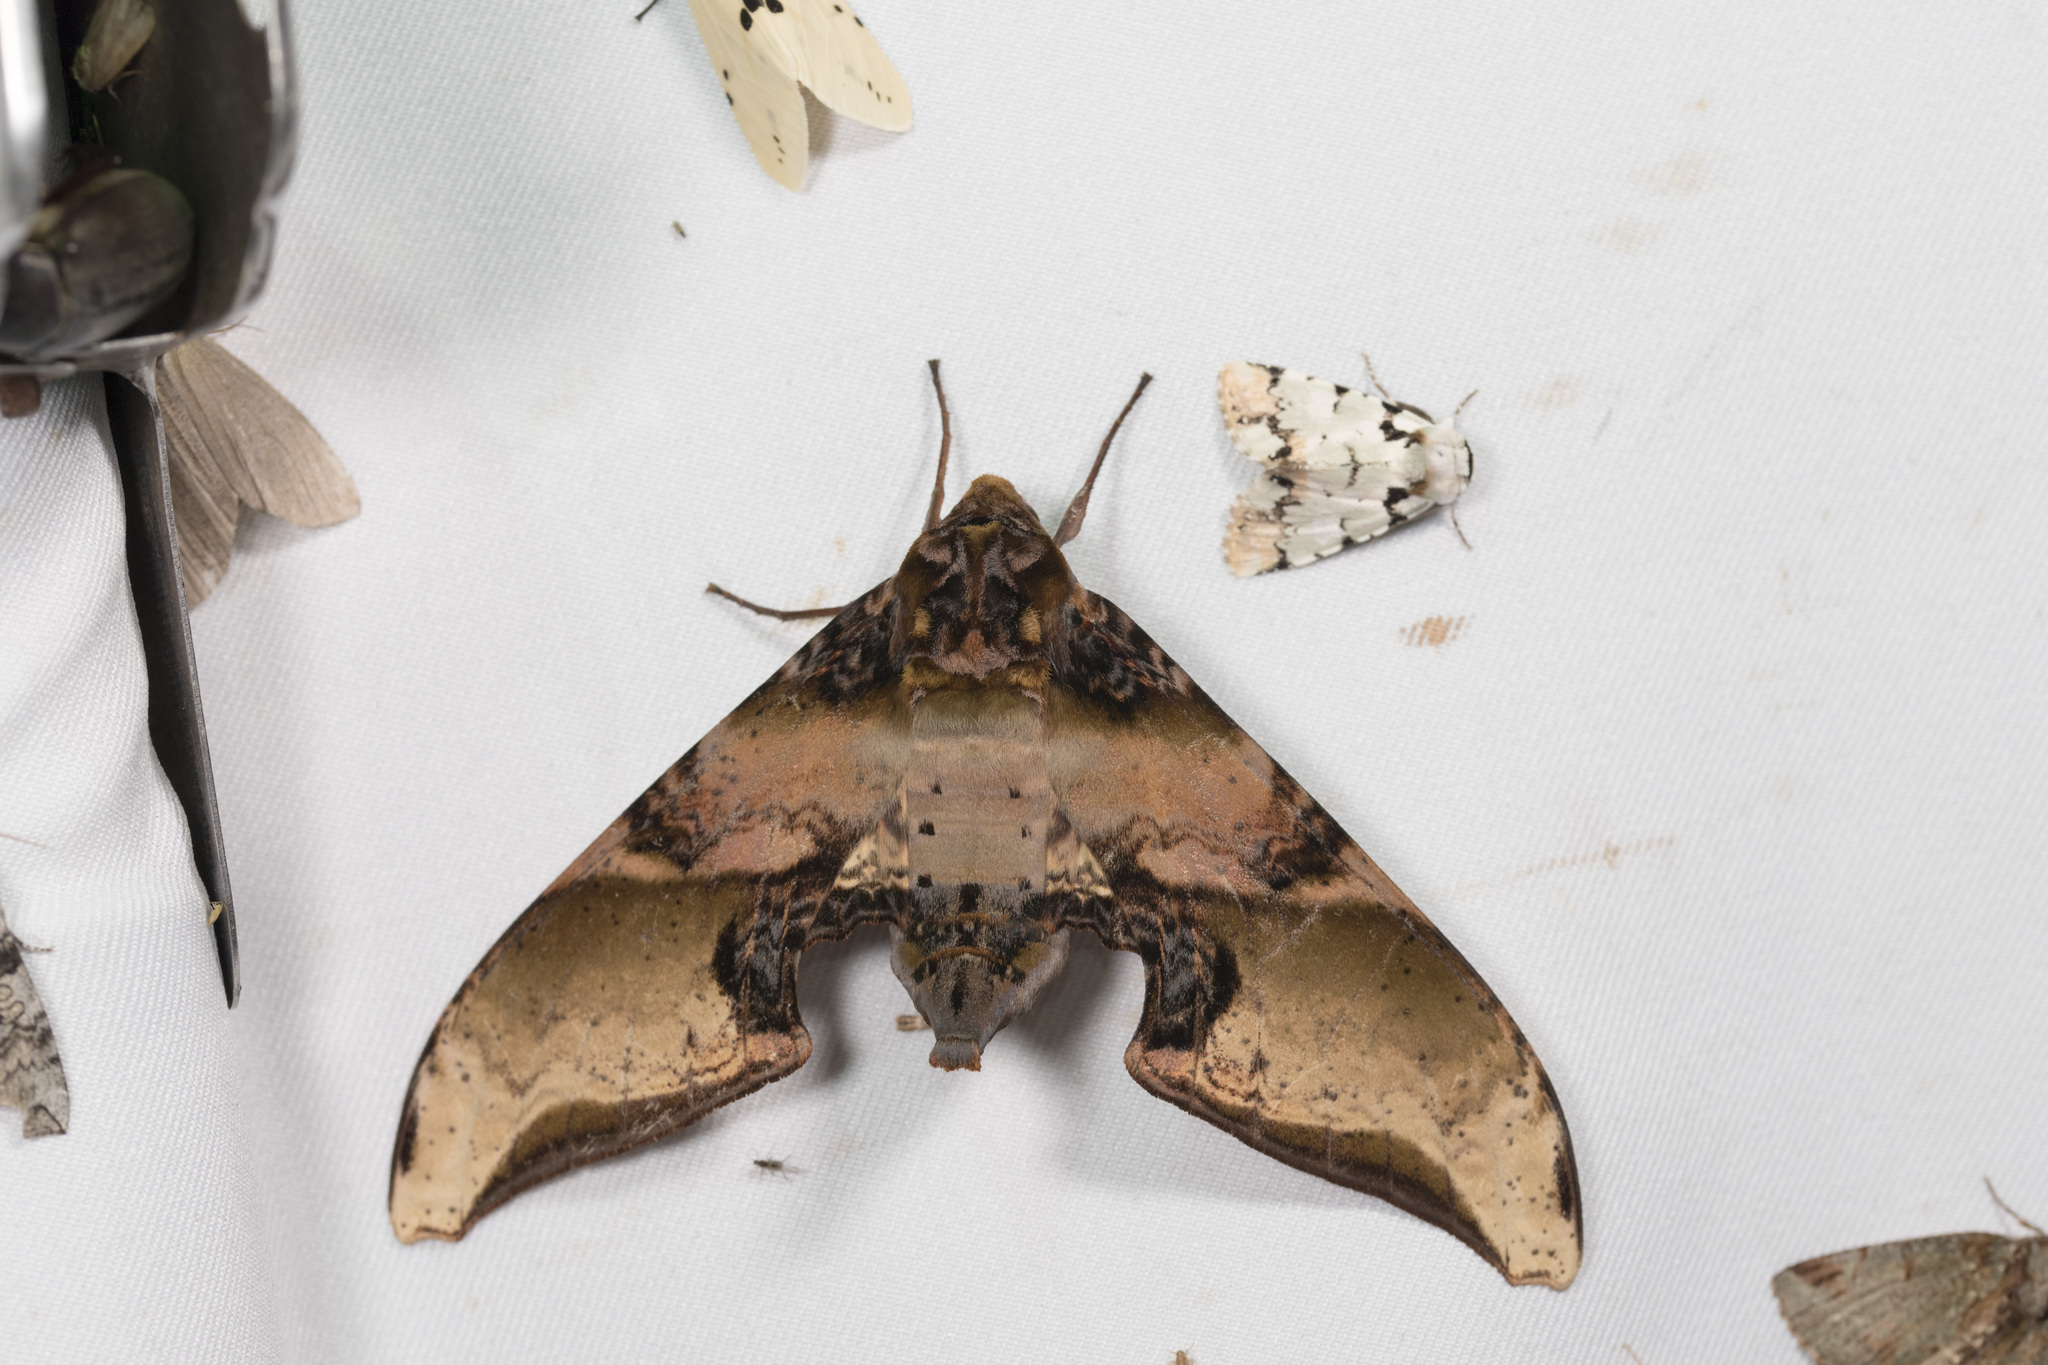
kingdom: Animalia
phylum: Arthropoda
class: Insecta
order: Lepidoptera
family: Sphingidae
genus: Amplypterus
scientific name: Amplypterus mansoni
